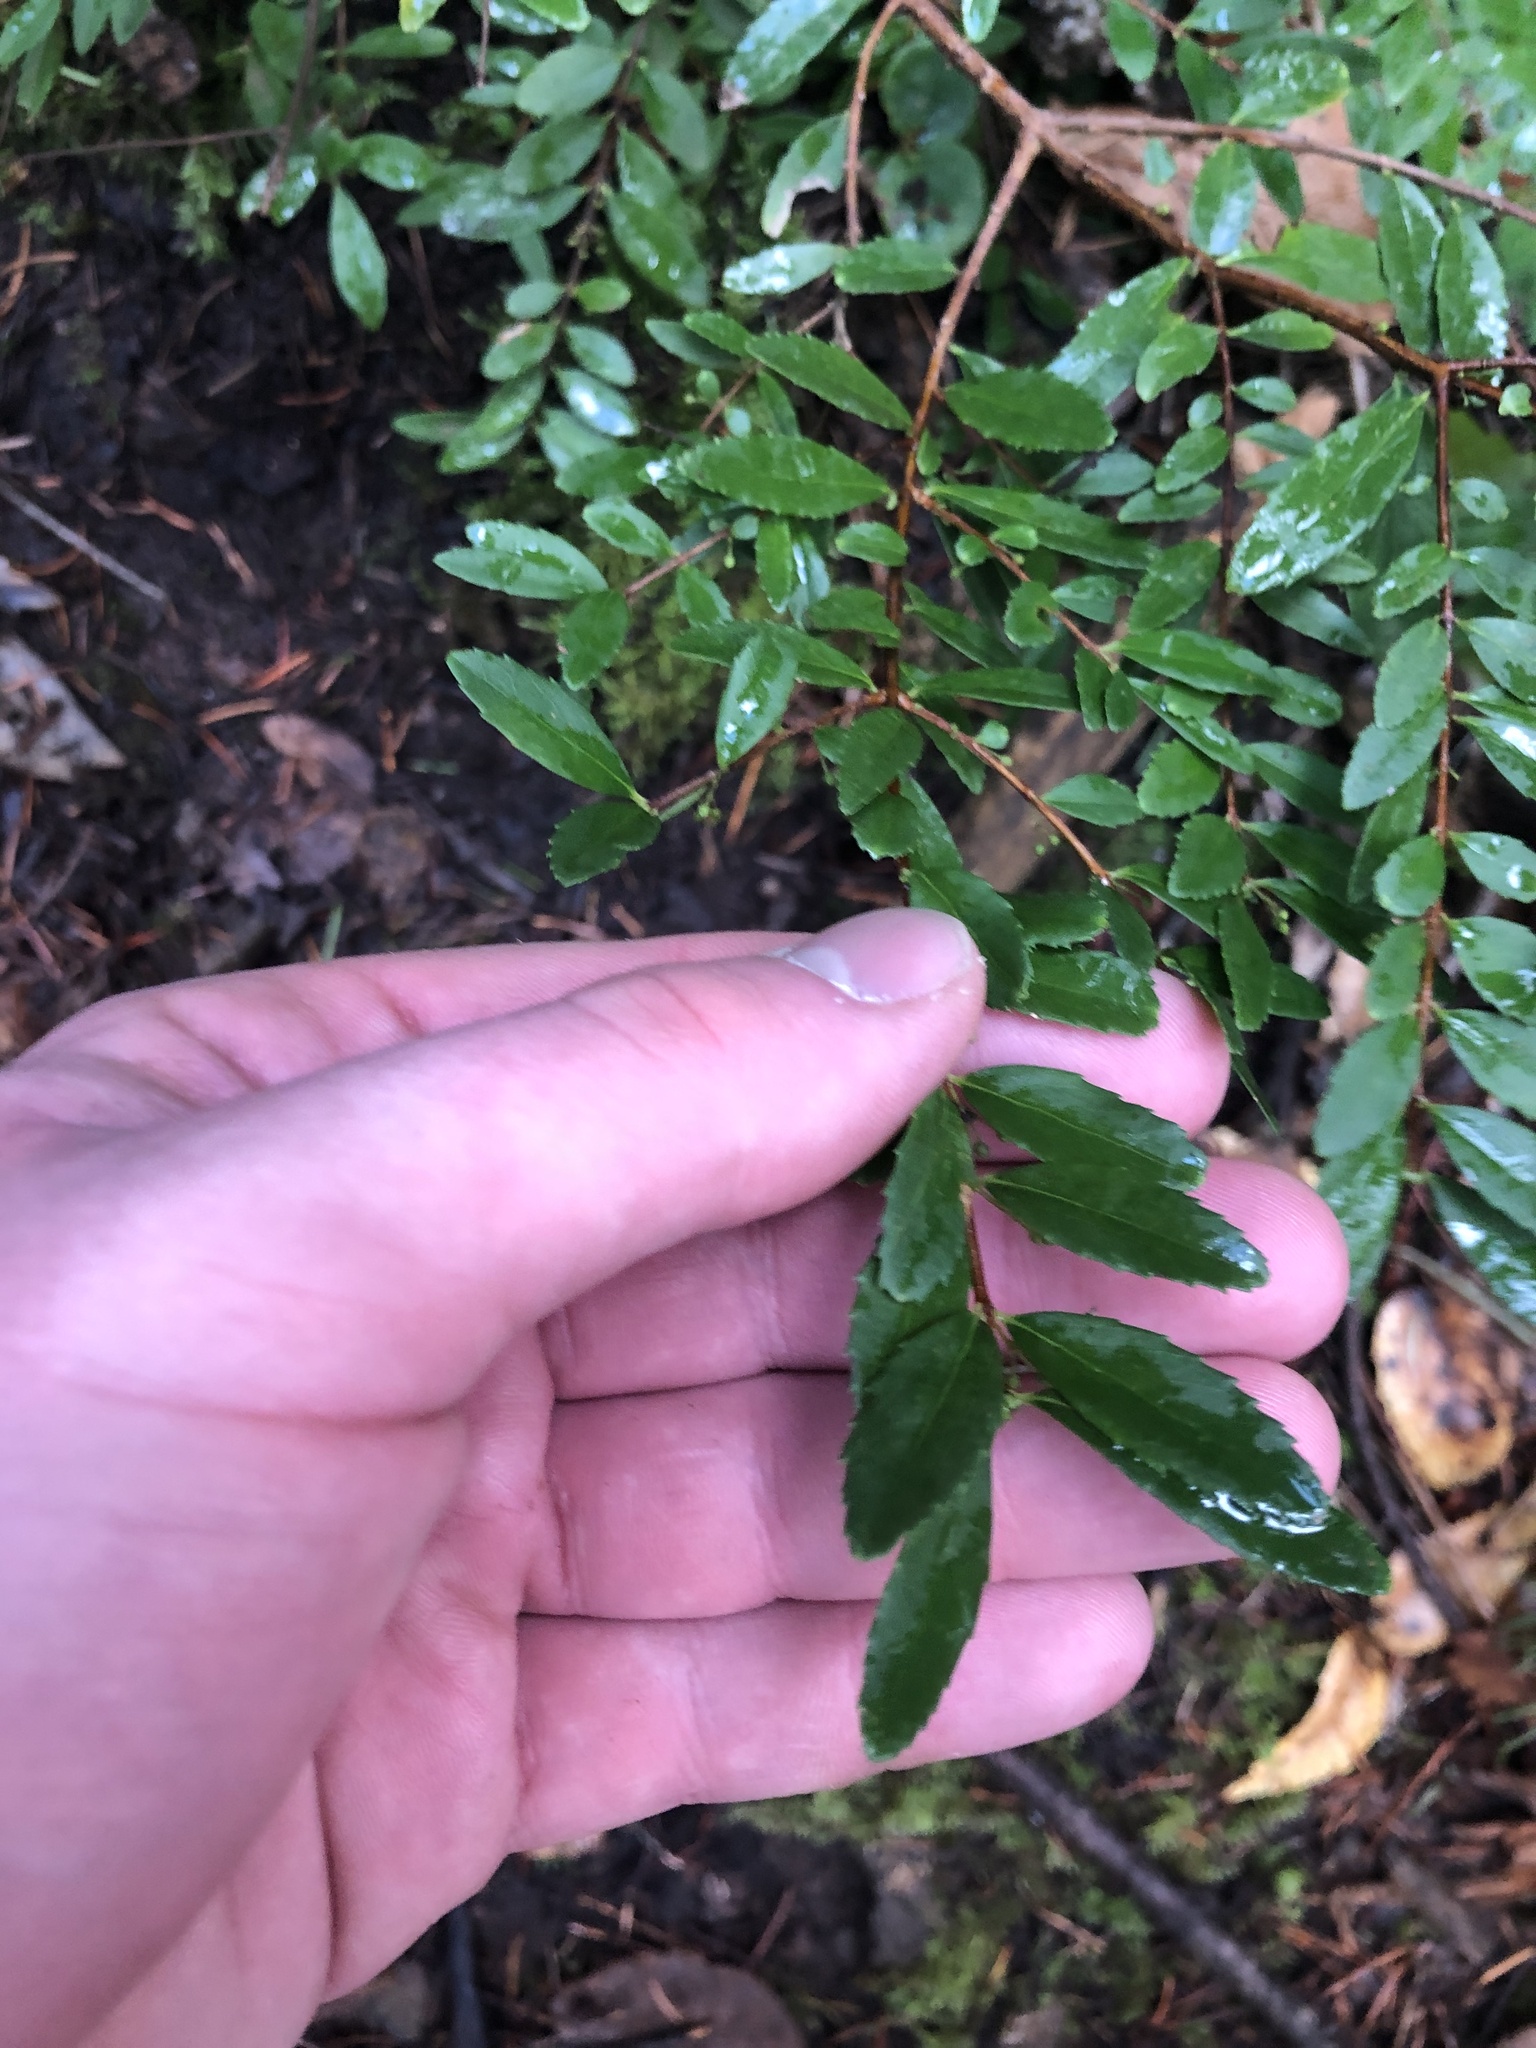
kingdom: Plantae
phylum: Tracheophyta
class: Magnoliopsida
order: Celastrales
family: Celastraceae
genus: Paxistima
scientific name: Paxistima myrsinites
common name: Mountain-lover
